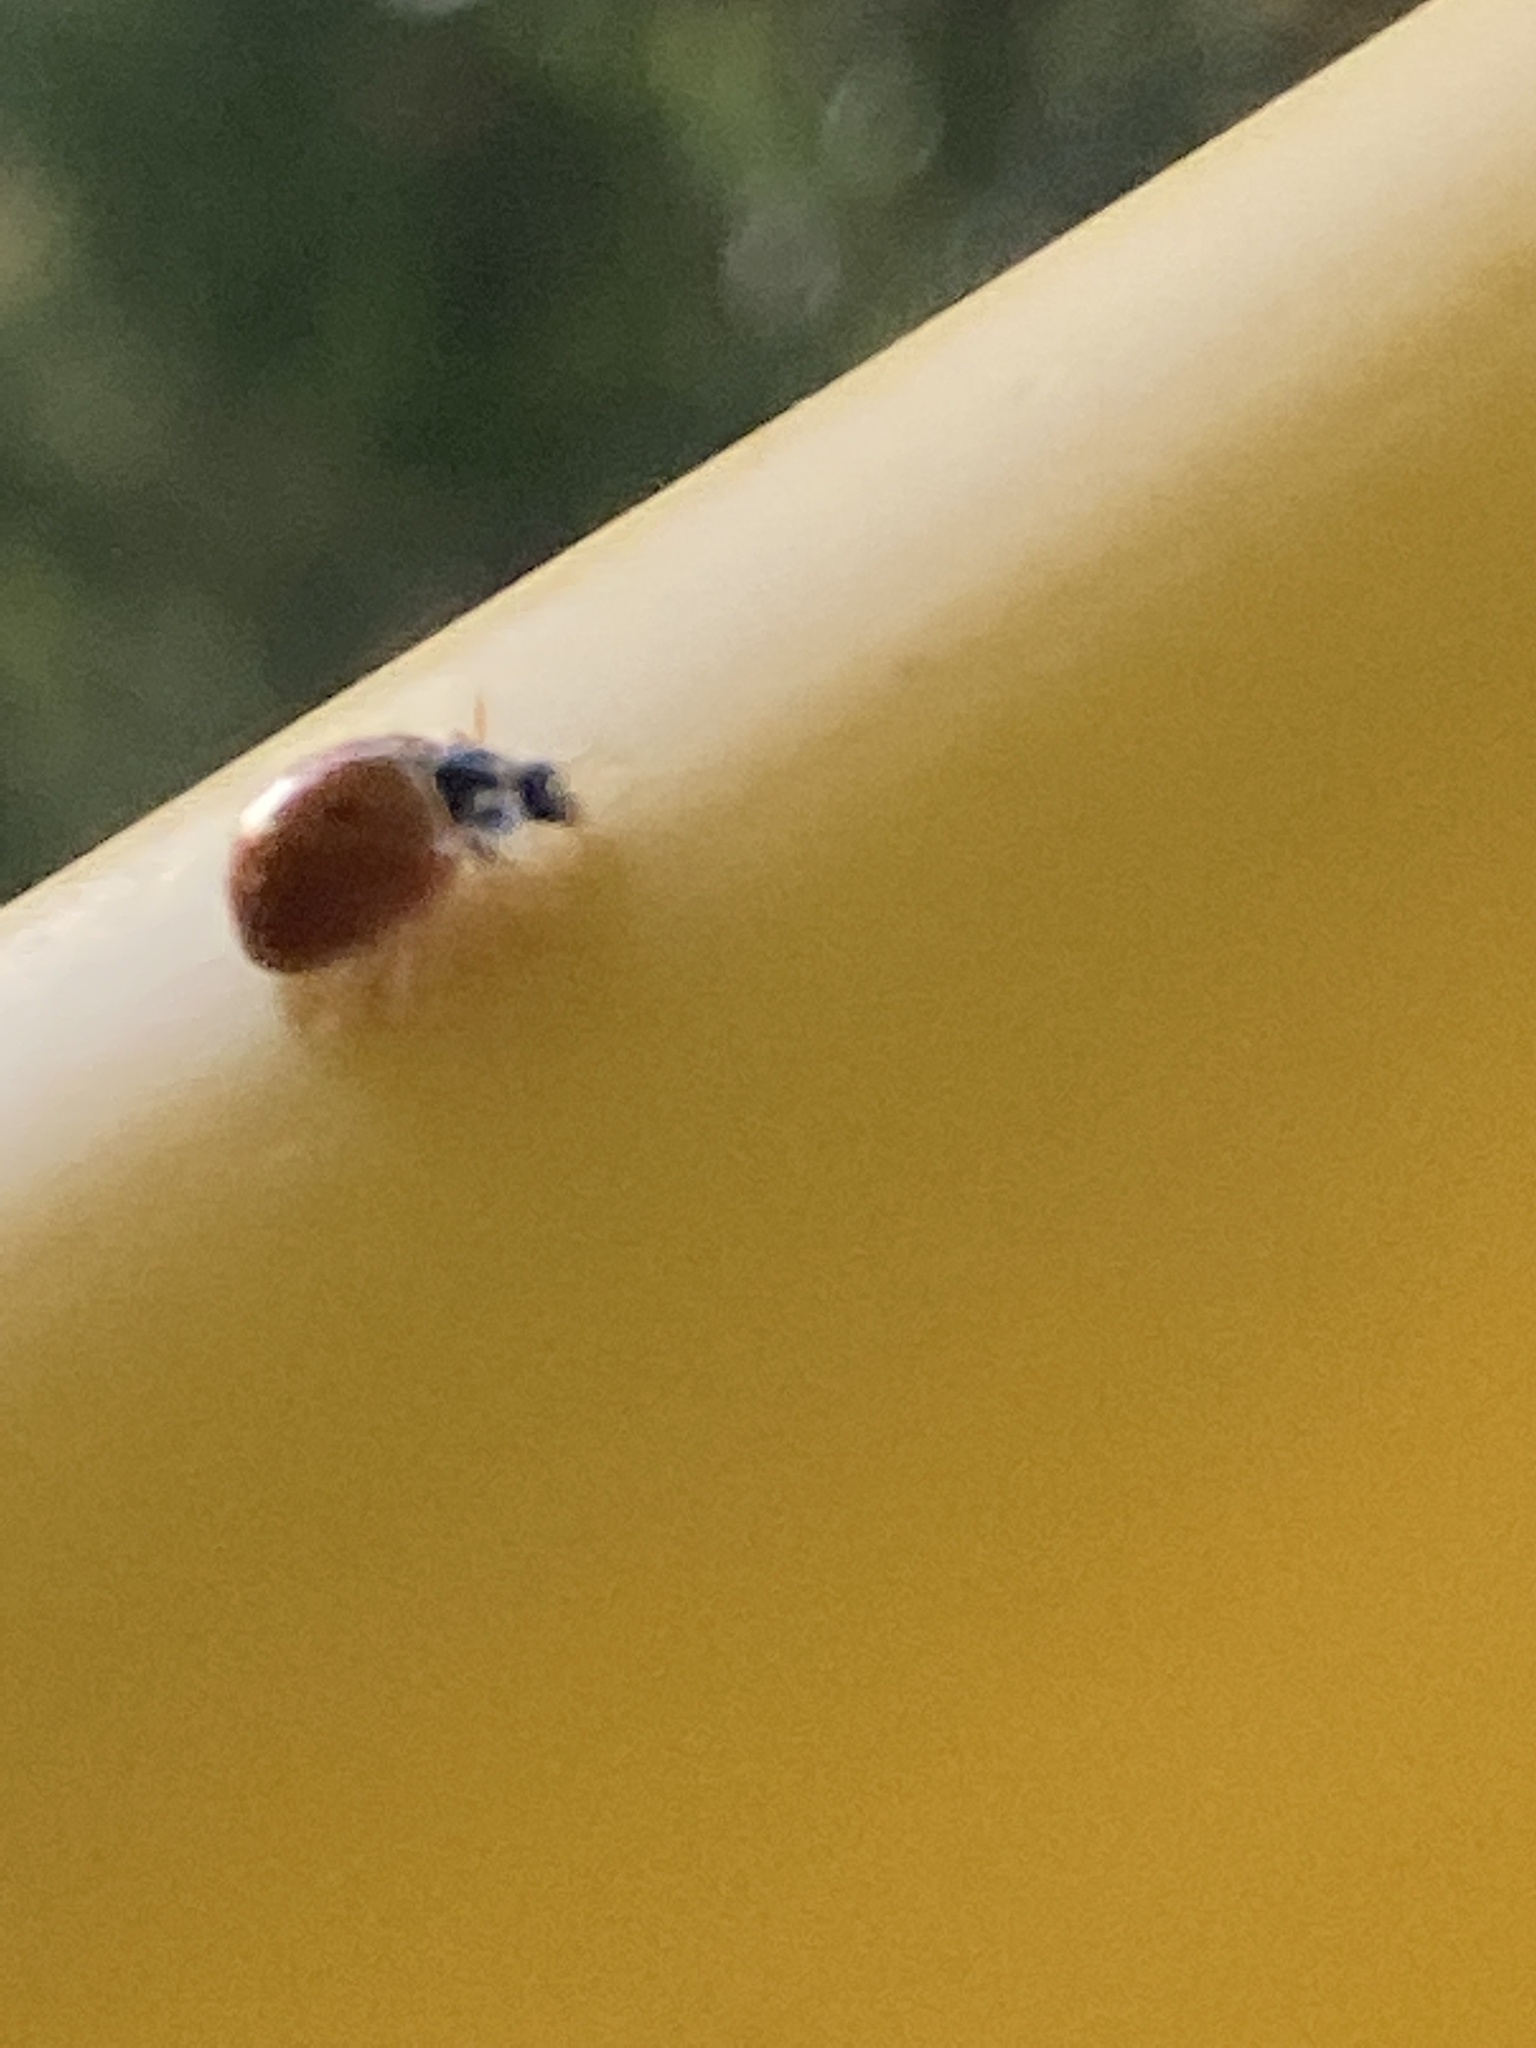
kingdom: Animalia
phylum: Arthropoda
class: Insecta
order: Coleoptera
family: Coccinellidae
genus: Cycloneda
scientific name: Cycloneda munda
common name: Polished lady beetle
